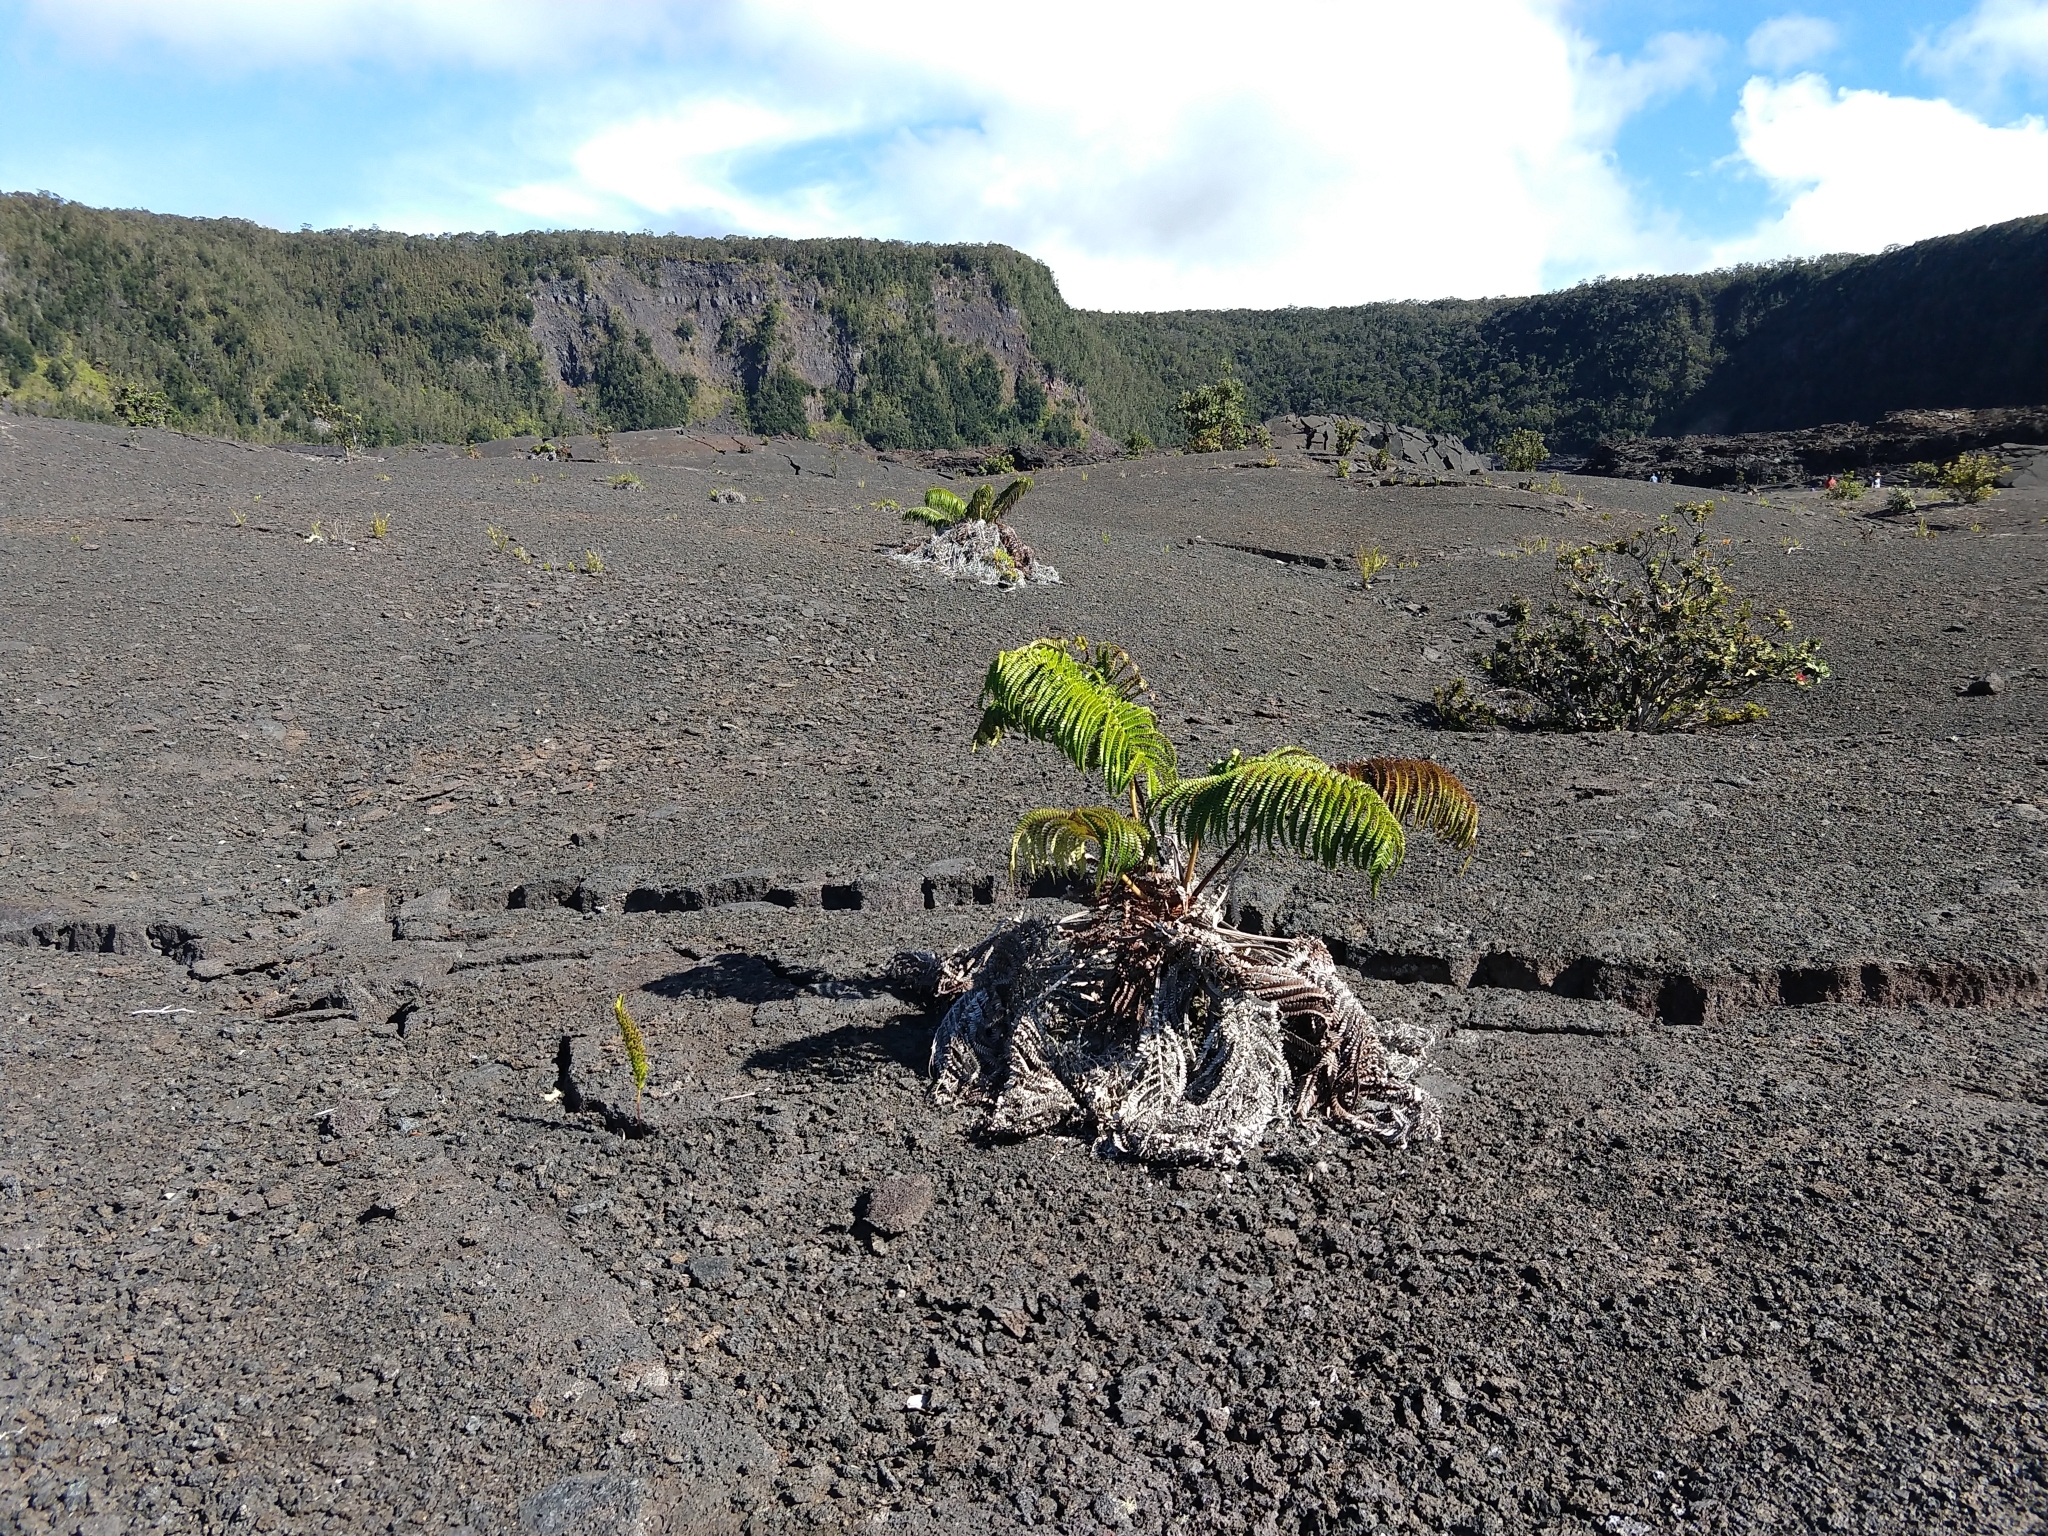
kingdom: Plantae
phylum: Tracheophyta
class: Polypodiopsida
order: Polypodiales
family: Blechnaceae
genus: Sadleria
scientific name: Sadleria cyatheoides
